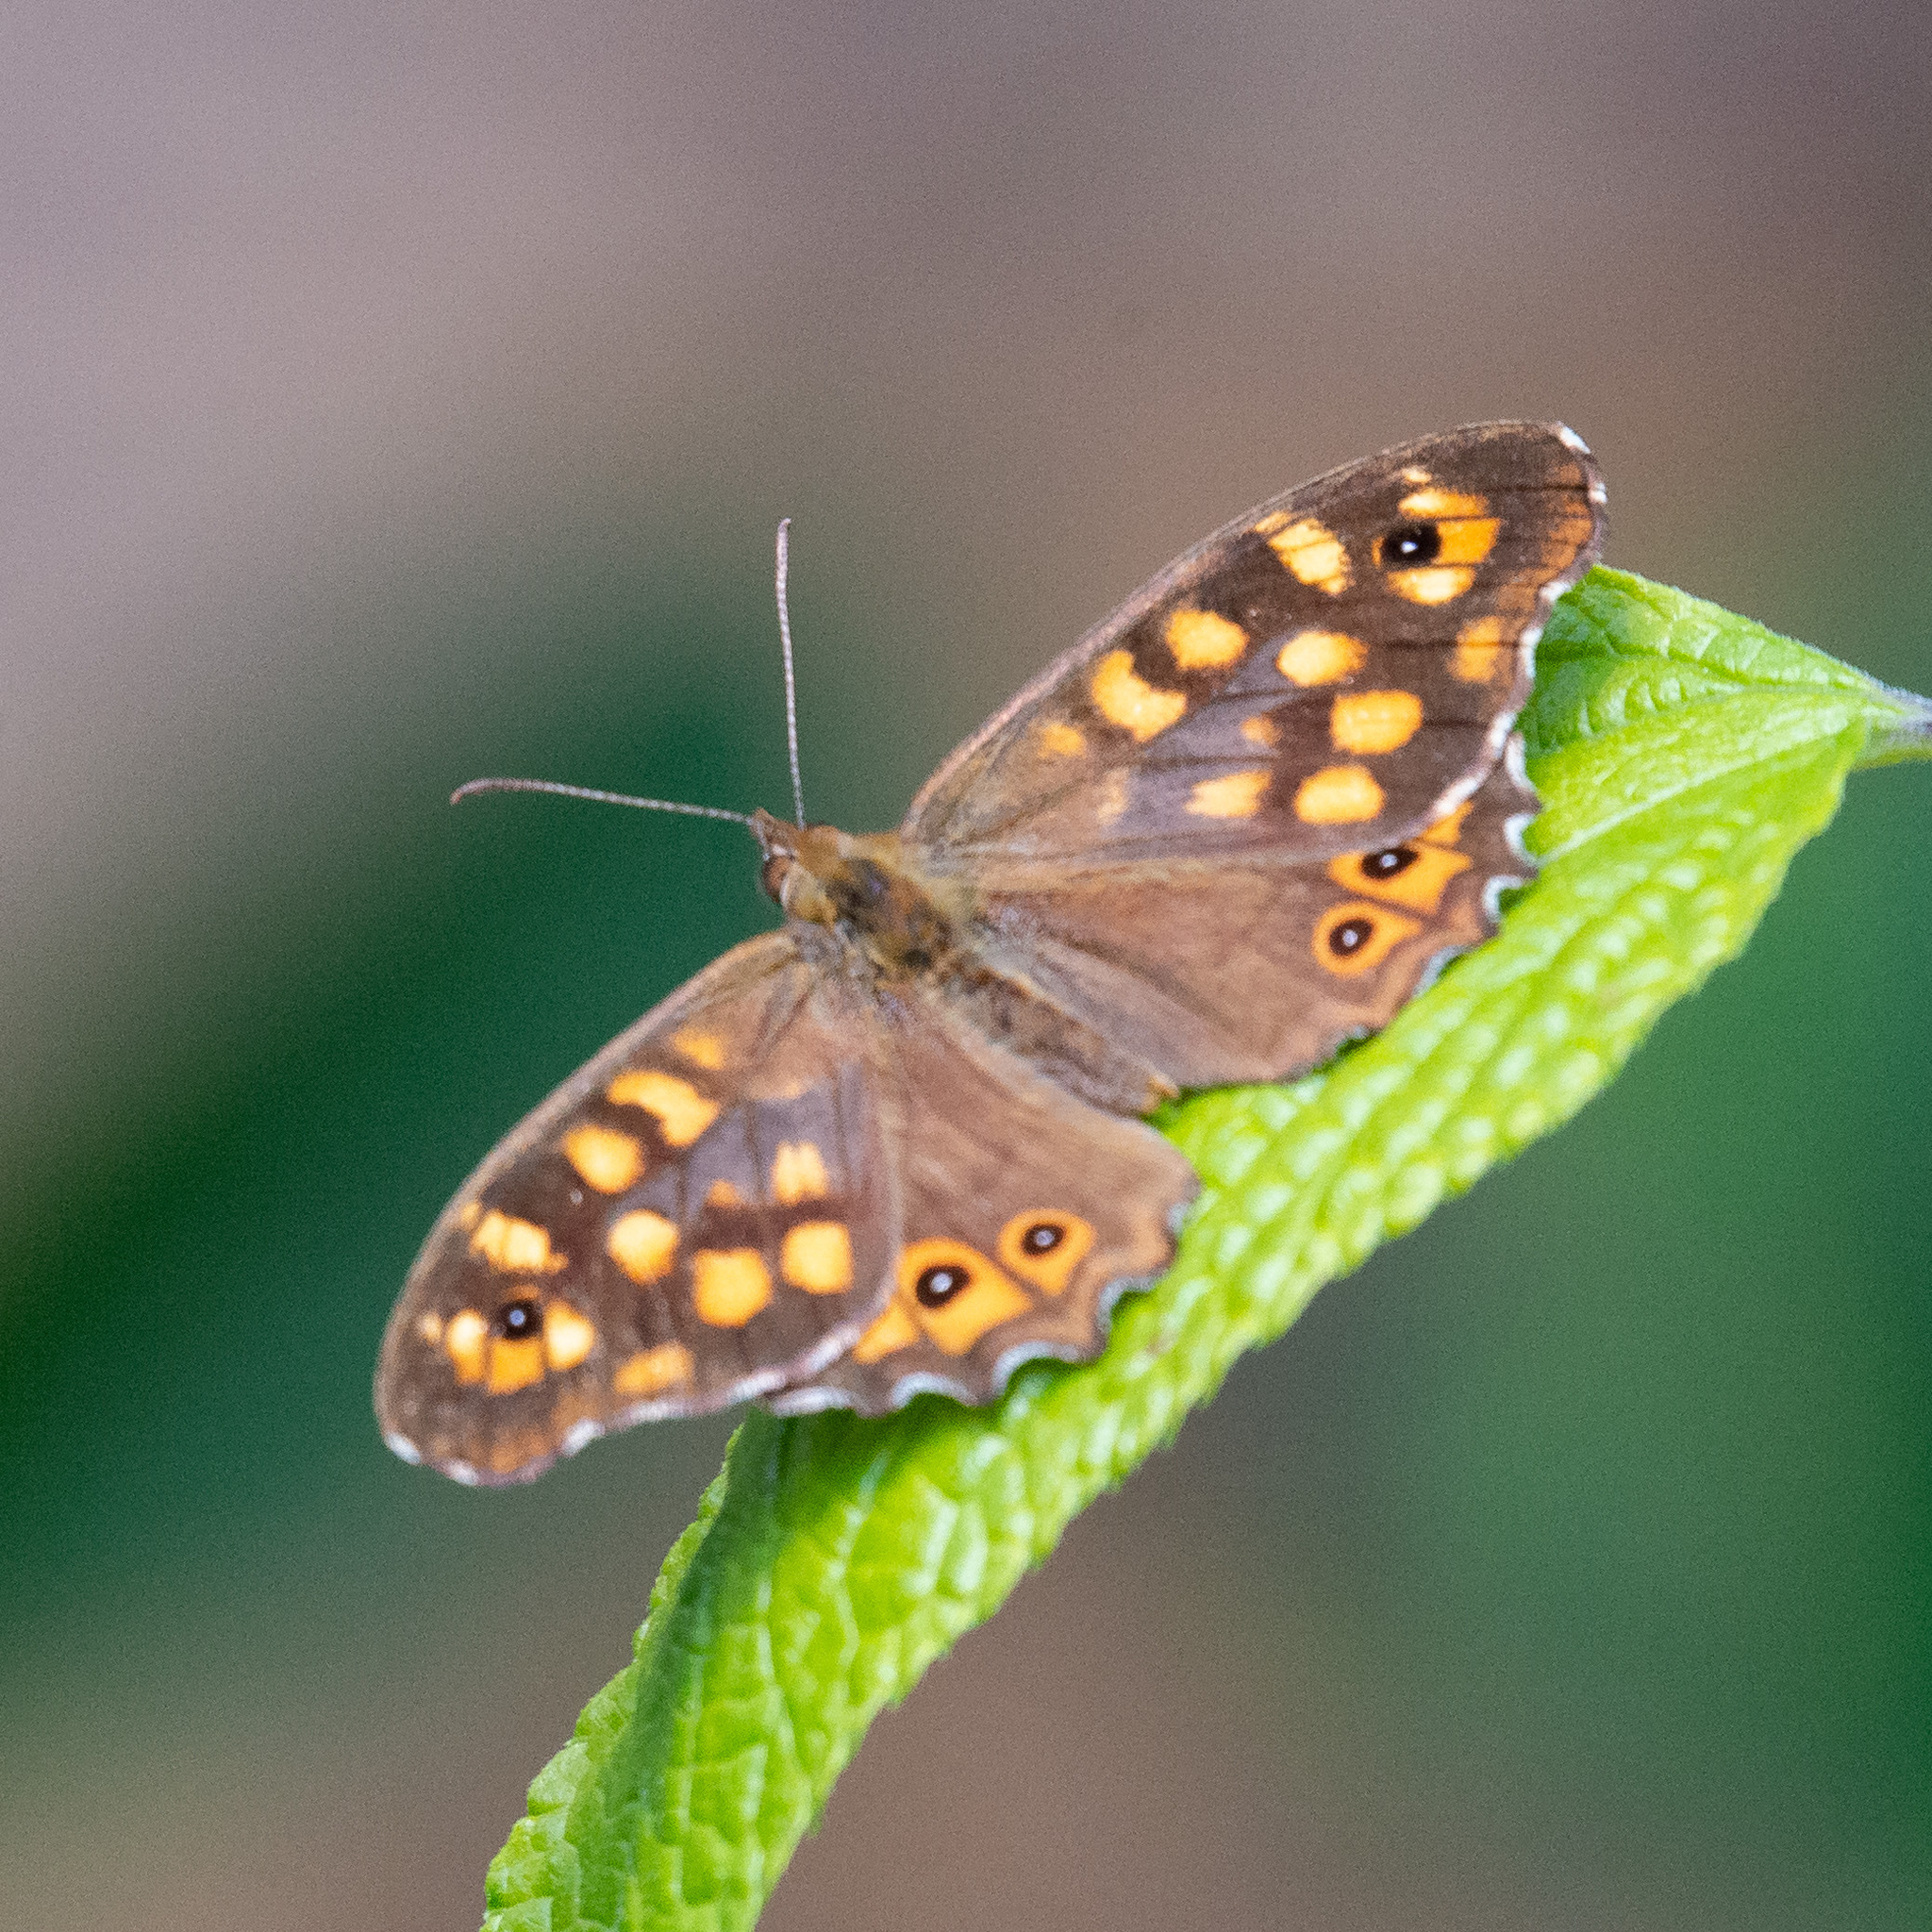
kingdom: Animalia
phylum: Arthropoda
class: Insecta
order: Lepidoptera
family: Nymphalidae
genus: Pararge
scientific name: Pararge aegeria
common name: Speckled wood
